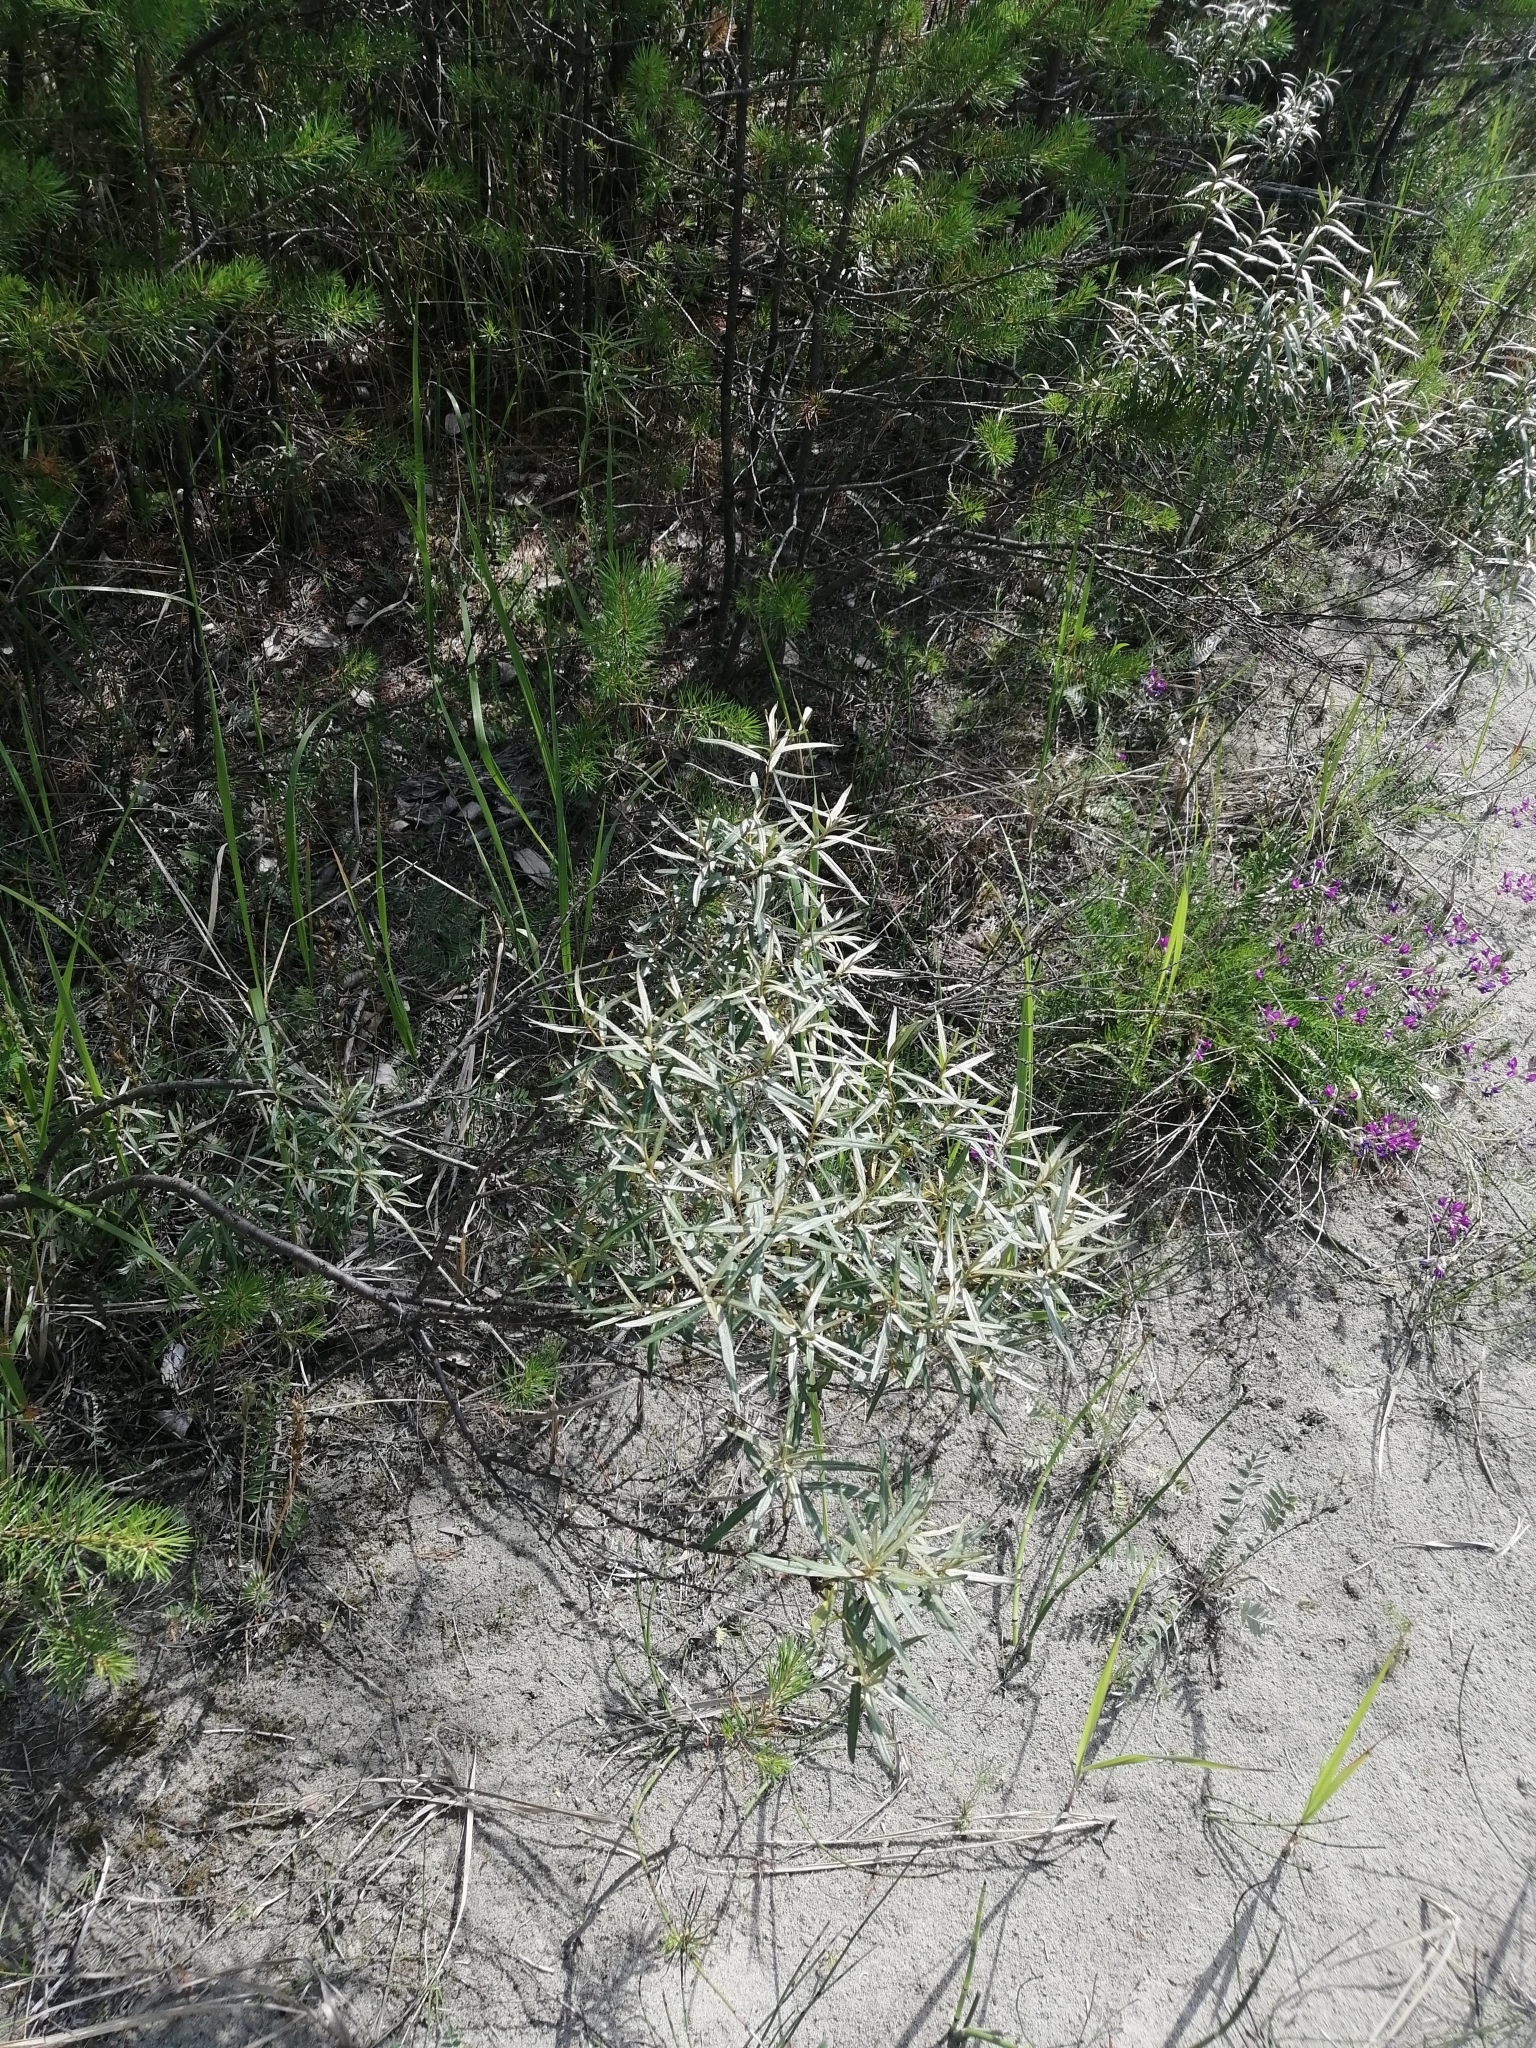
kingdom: Plantae
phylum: Tracheophyta
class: Magnoliopsida
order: Rosales
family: Elaeagnaceae
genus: Hippophae
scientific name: Hippophae rhamnoides
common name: Sea-buckthorn
